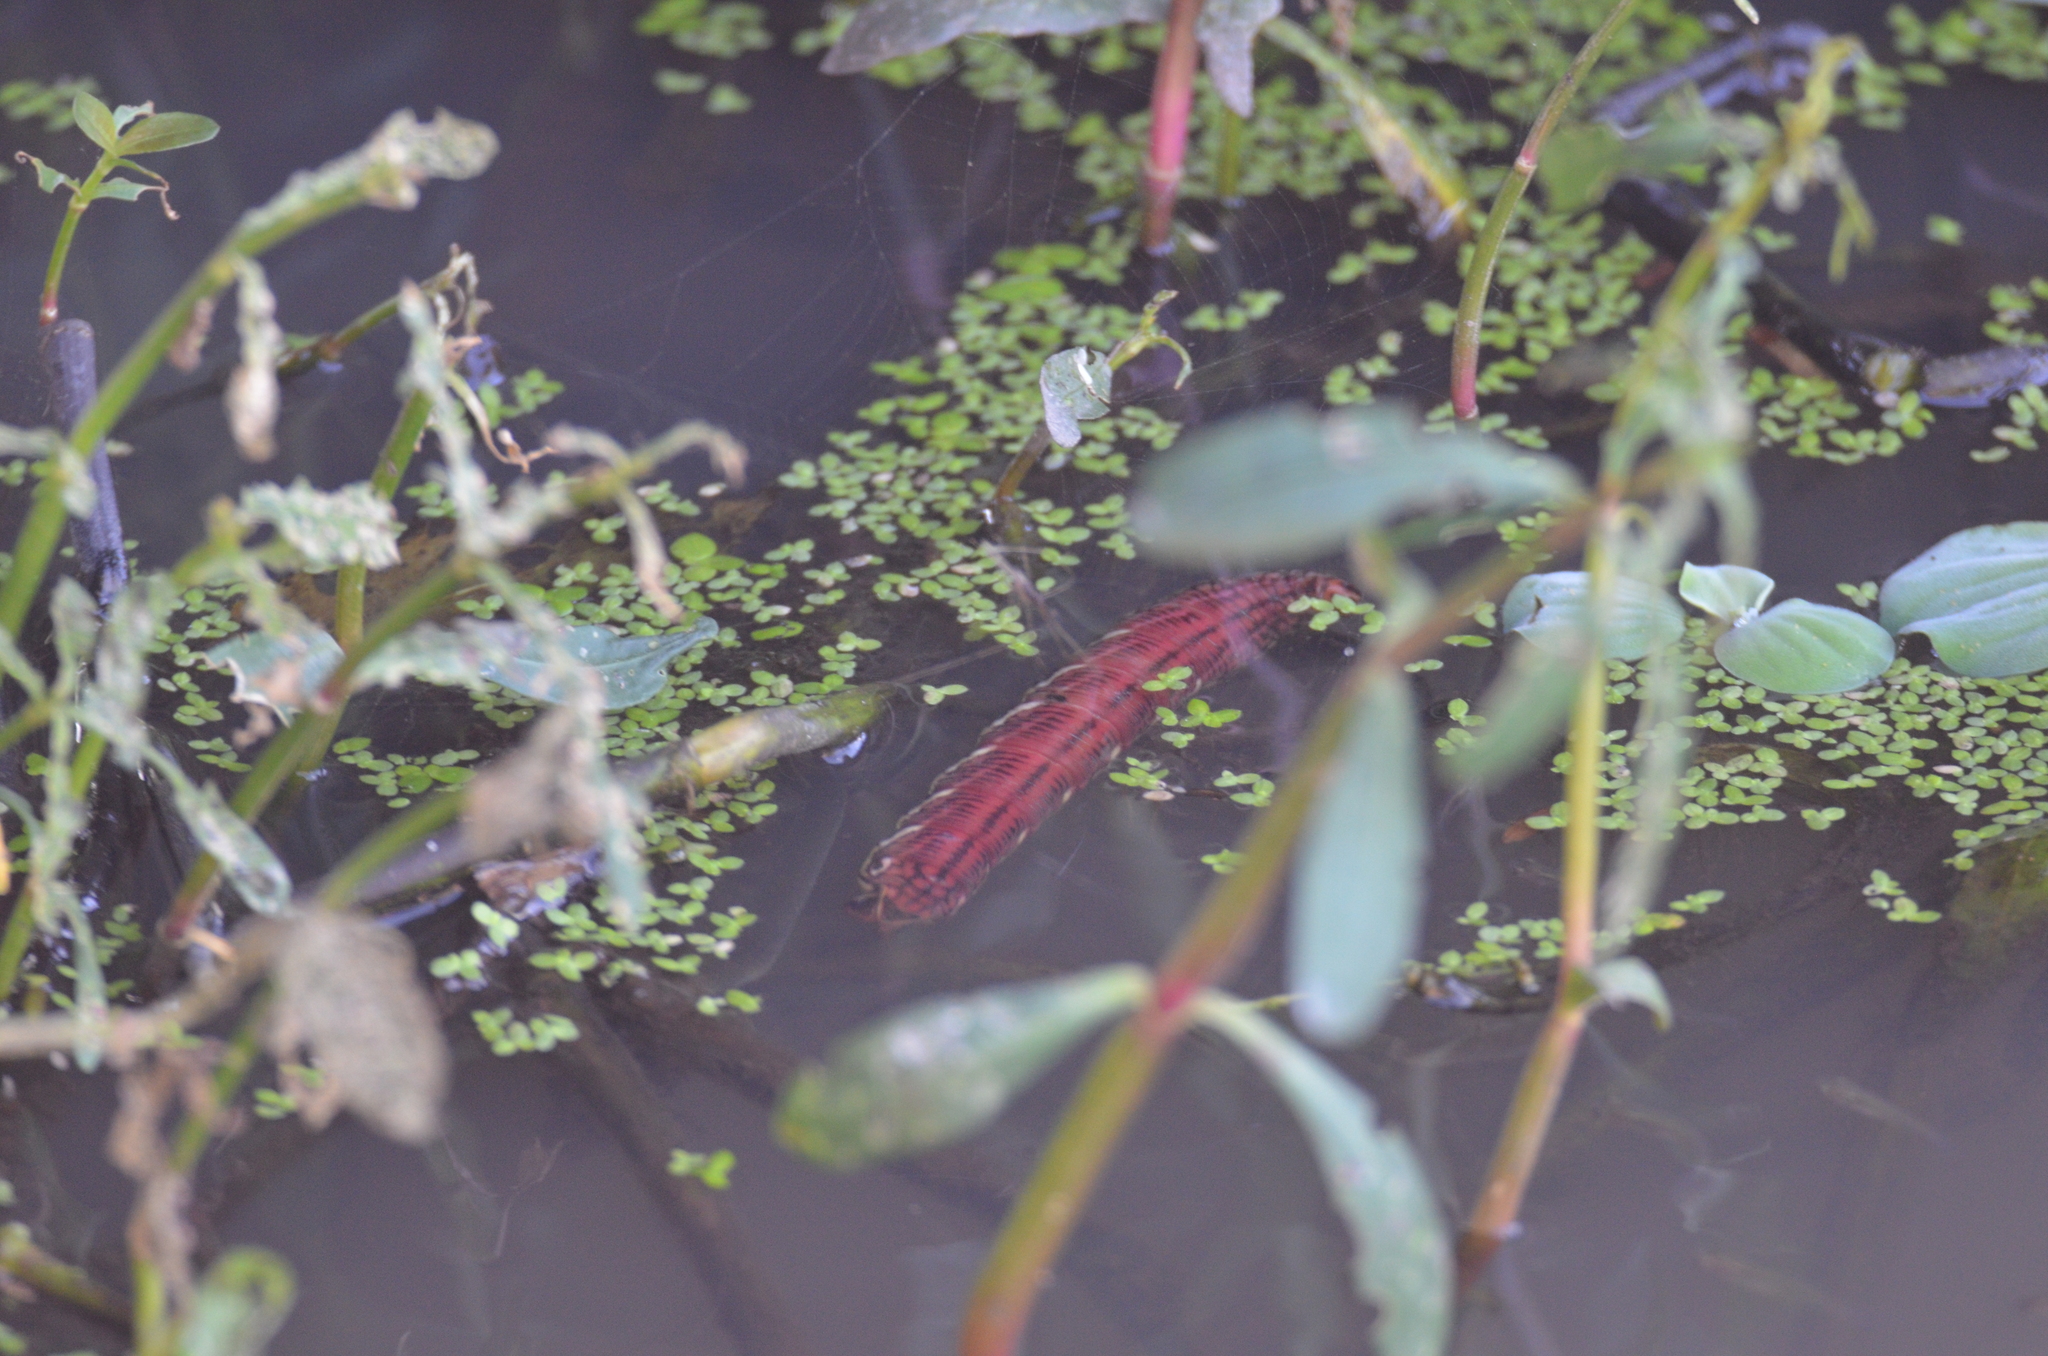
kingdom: Animalia
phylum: Arthropoda
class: Insecta
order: Lepidoptera
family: Sphingidae
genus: Eumorpha
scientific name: Eumorpha fasciatus
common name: Banded sphinx
